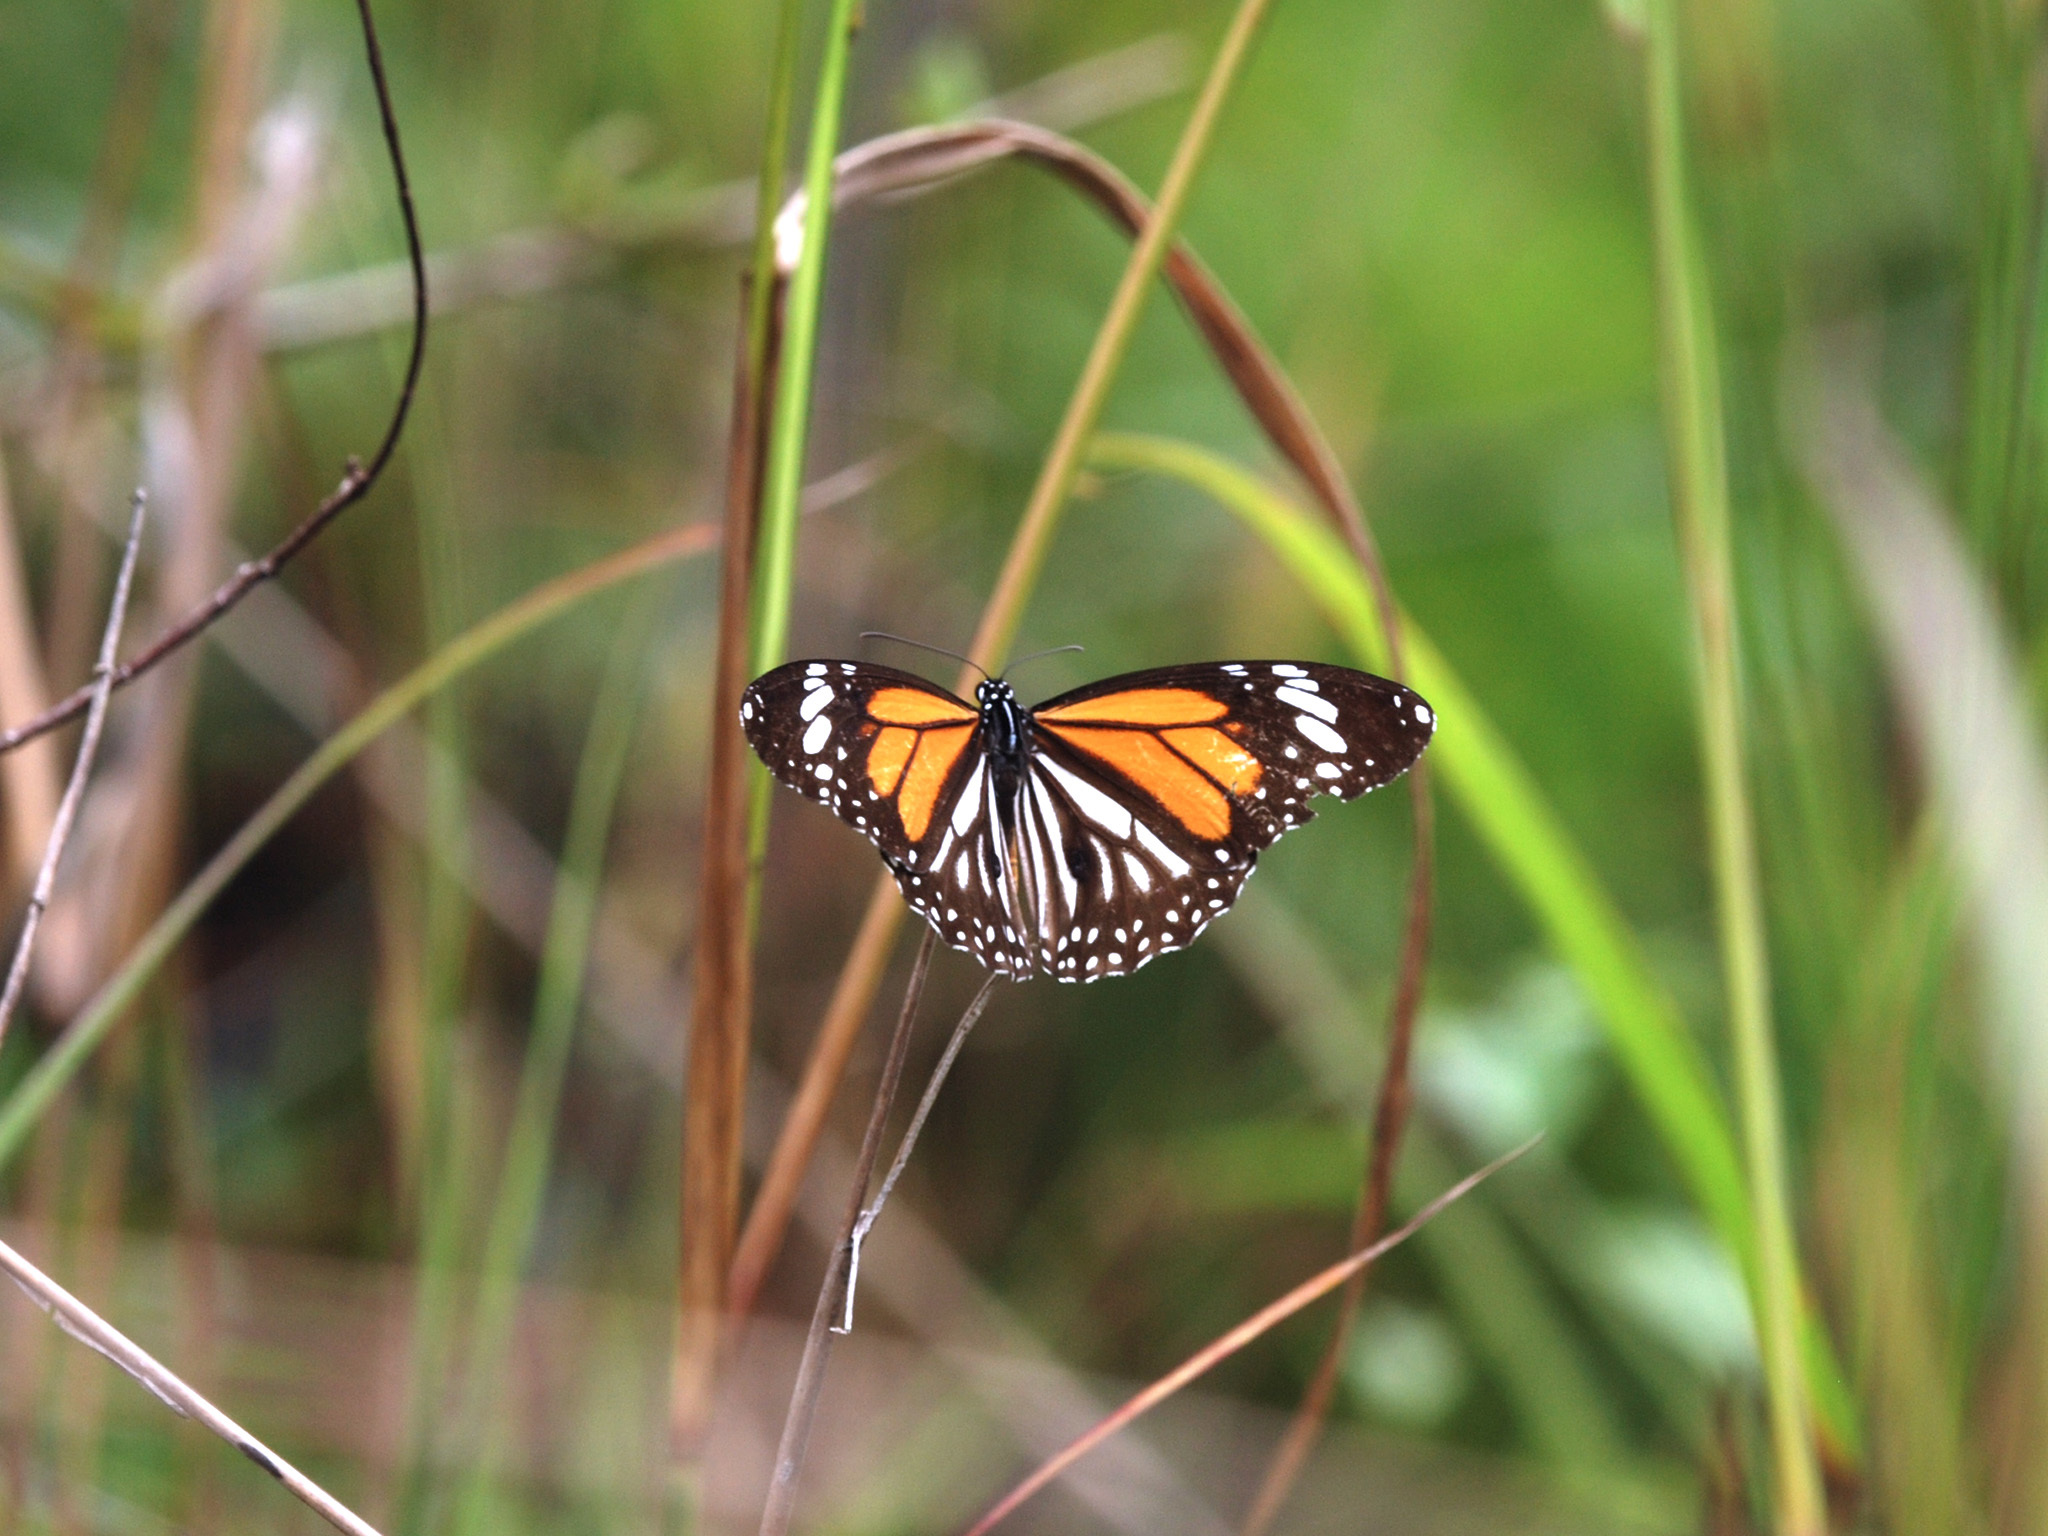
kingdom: Animalia
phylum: Arthropoda
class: Insecta
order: Lepidoptera
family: Nymphalidae
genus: Danaus
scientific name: Danaus melanippus
